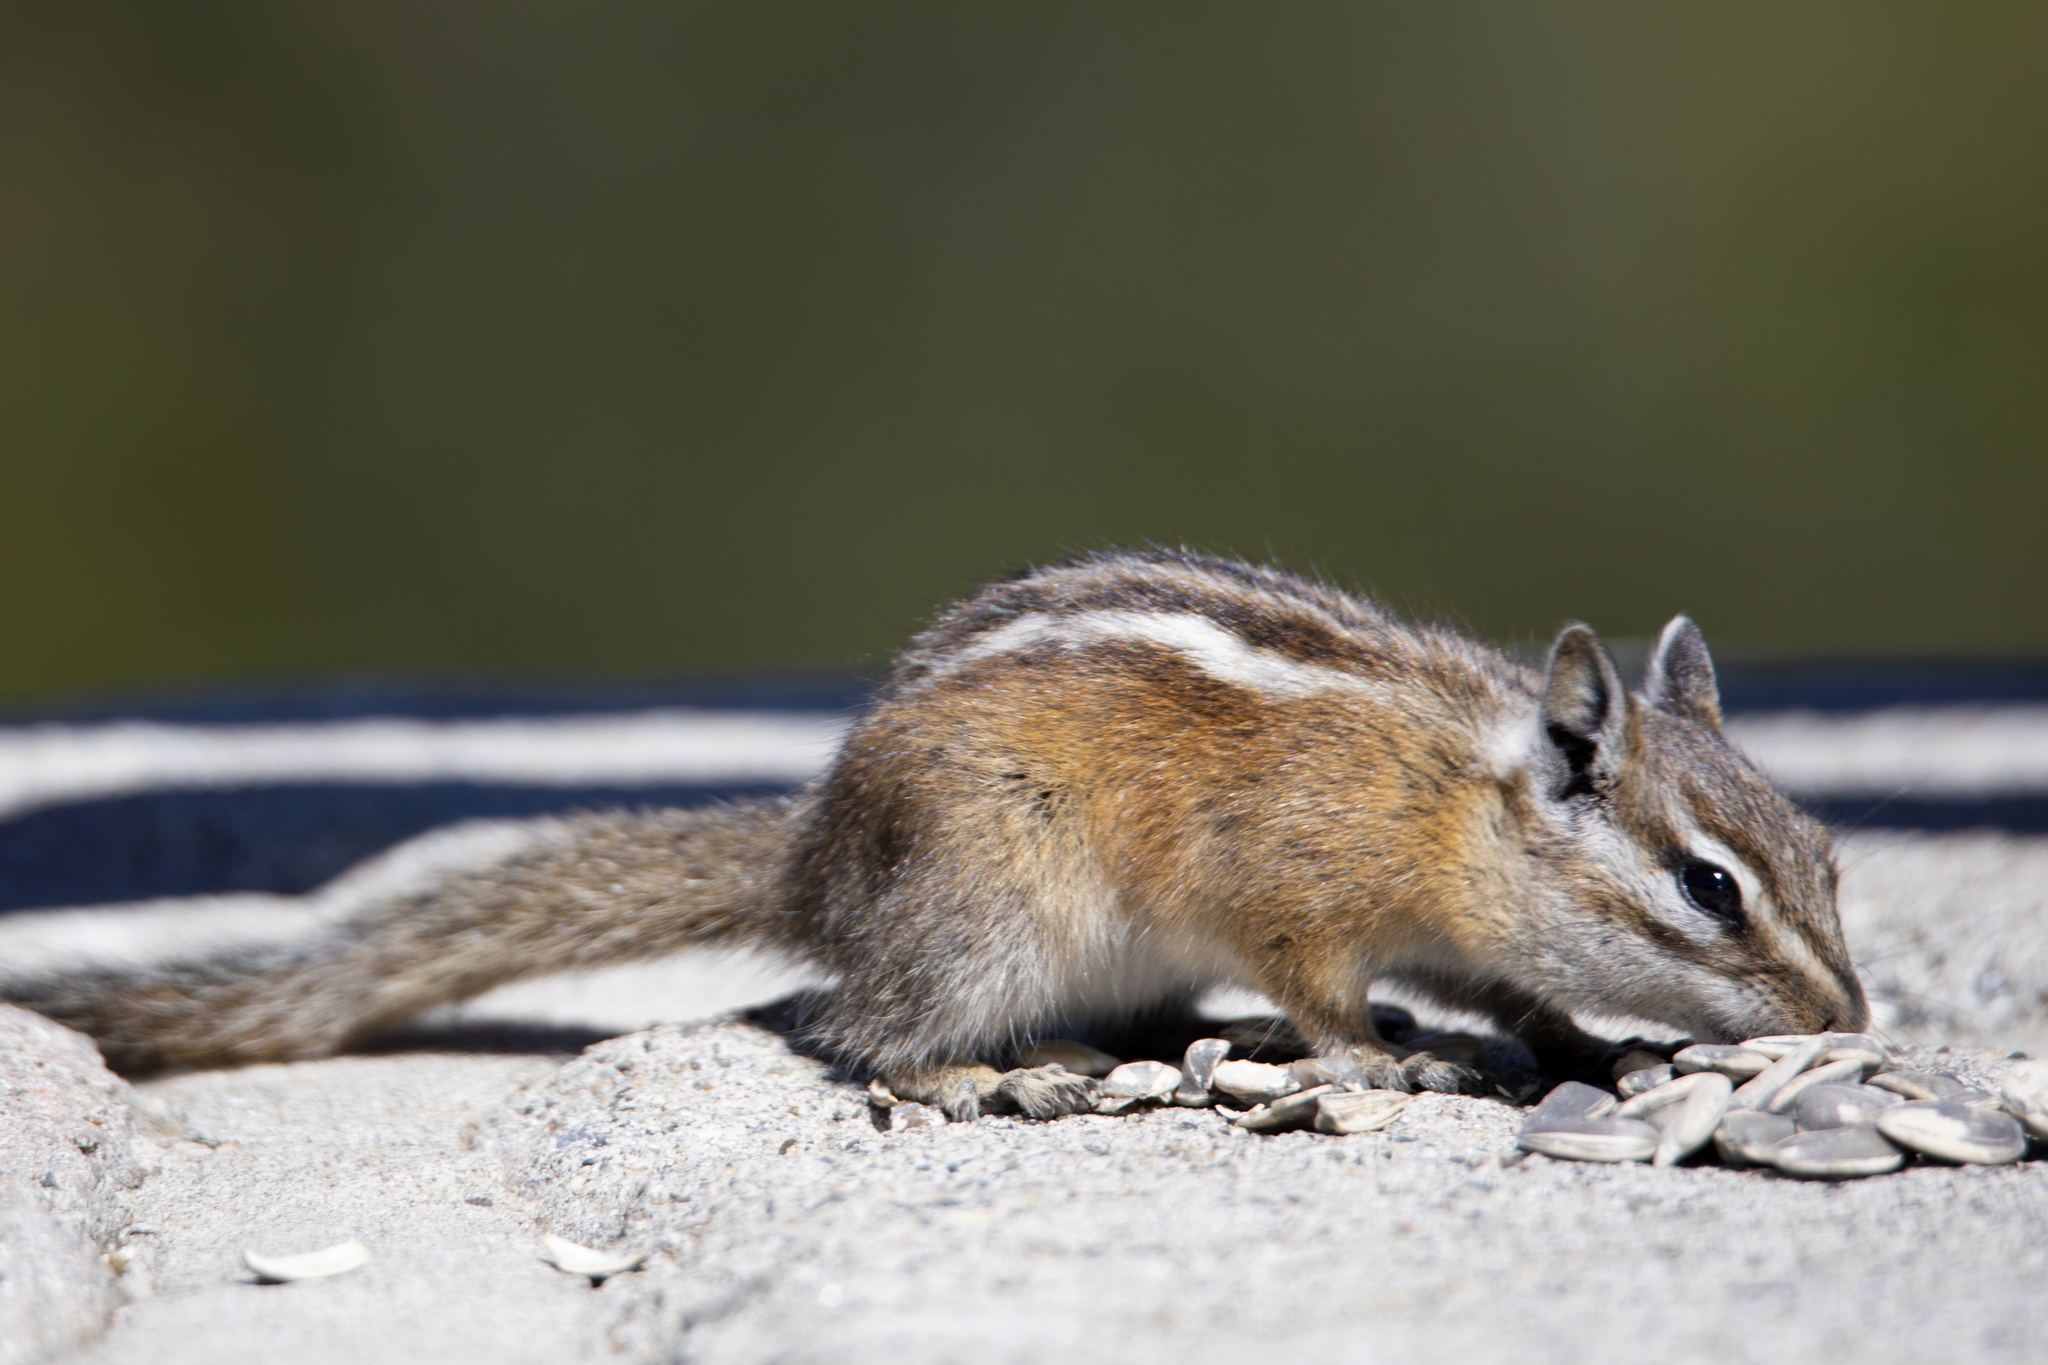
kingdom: Animalia
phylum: Chordata
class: Mammalia
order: Rodentia
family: Sciuridae
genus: Tamias
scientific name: Tamias umbrinus
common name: Uinta chipmunk
